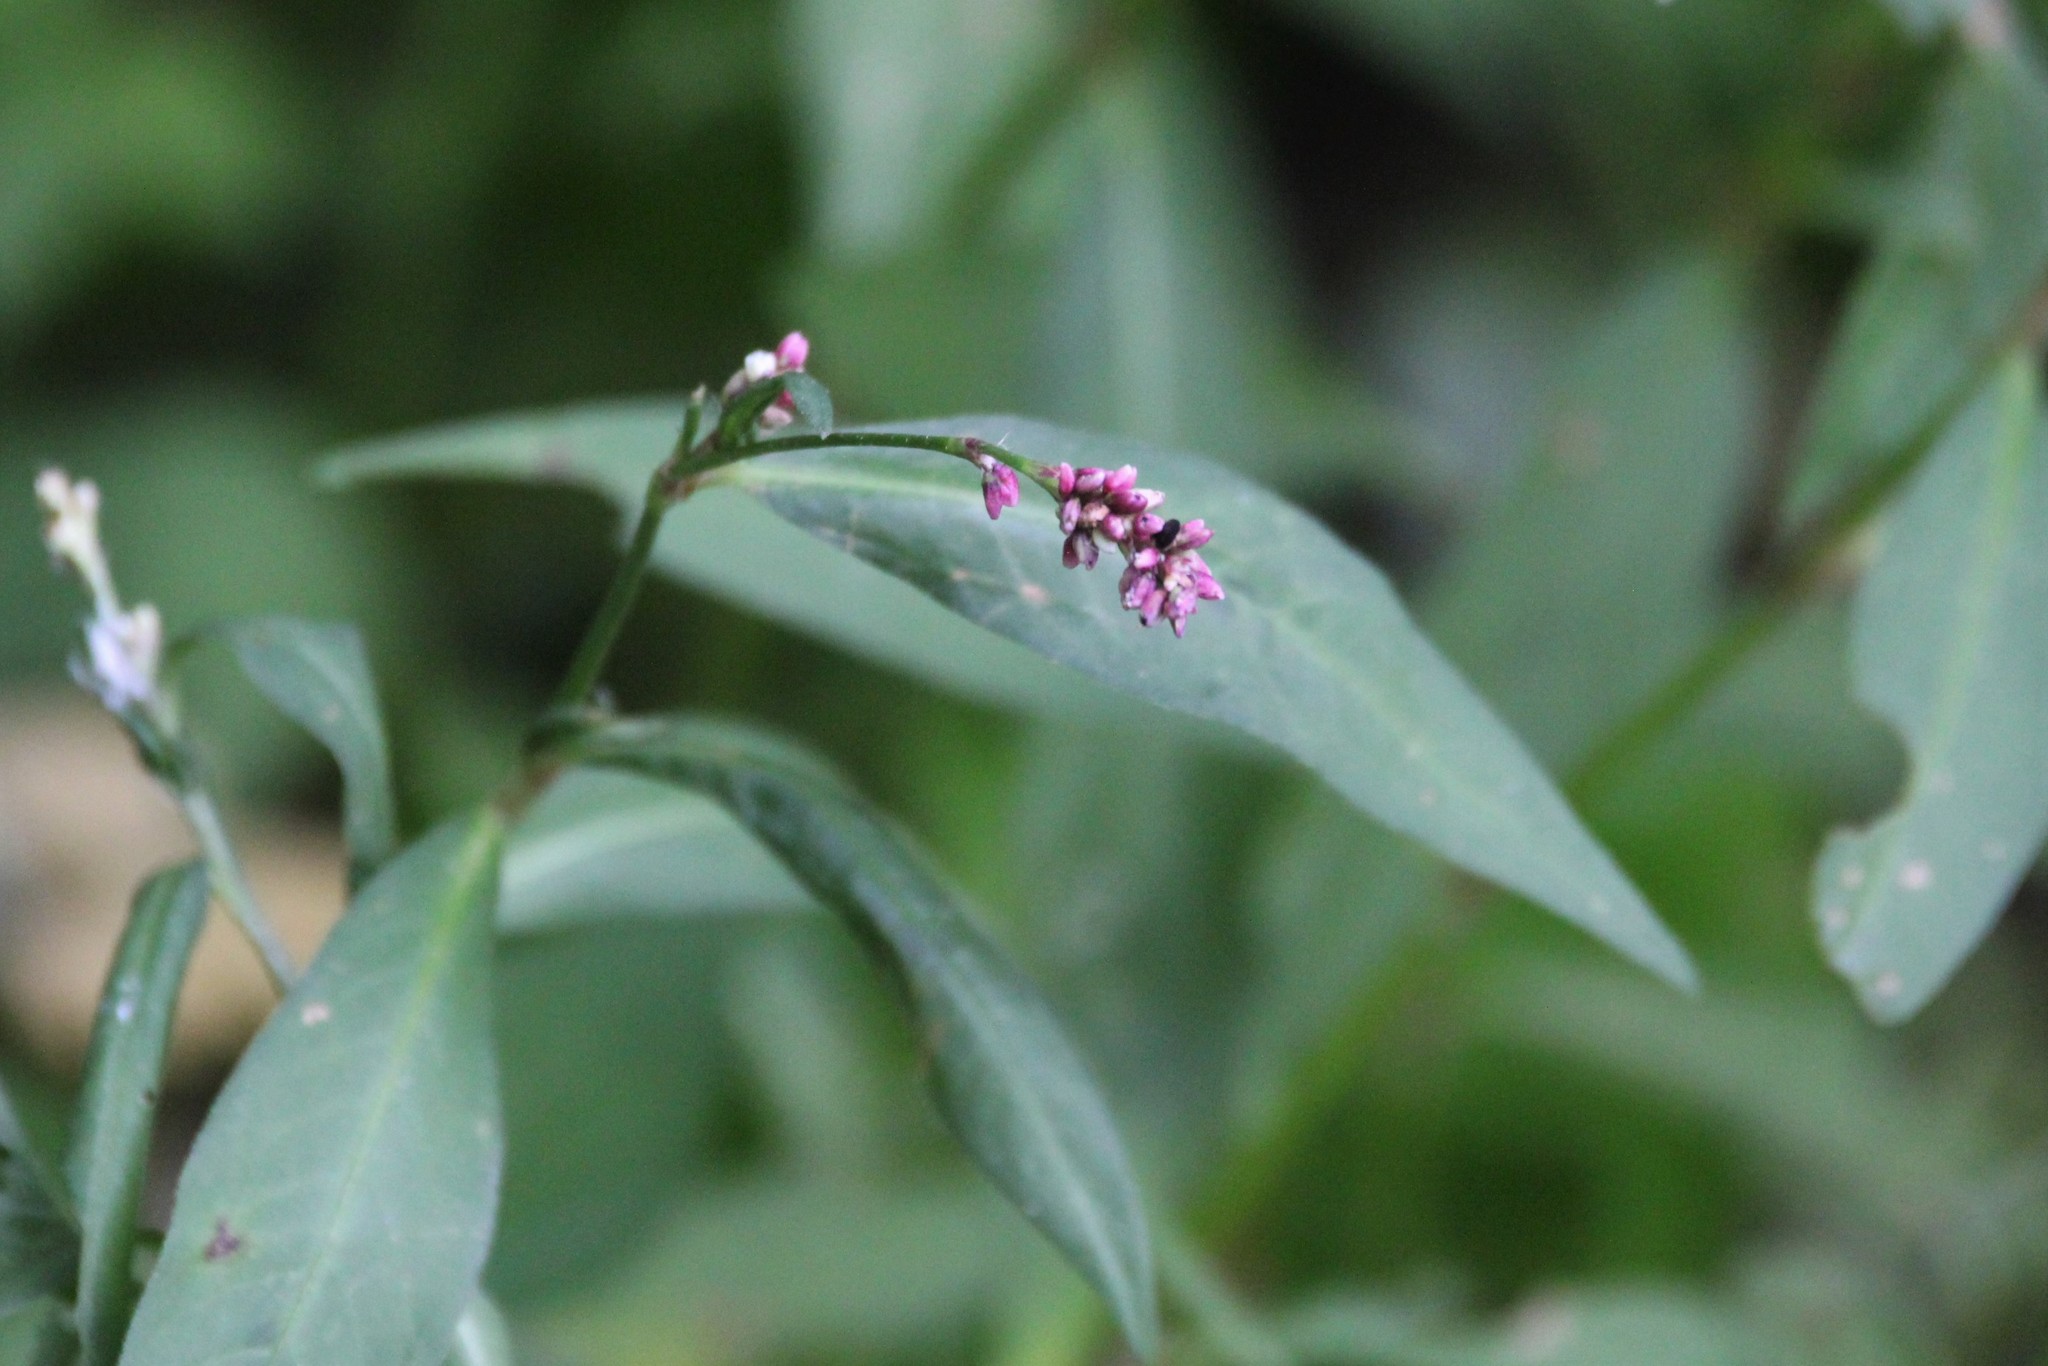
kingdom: Plantae
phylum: Tracheophyta
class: Magnoliopsida
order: Caryophyllales
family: Polygonaceae
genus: Persicaria
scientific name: Persicaria maculosa
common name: Redshank
